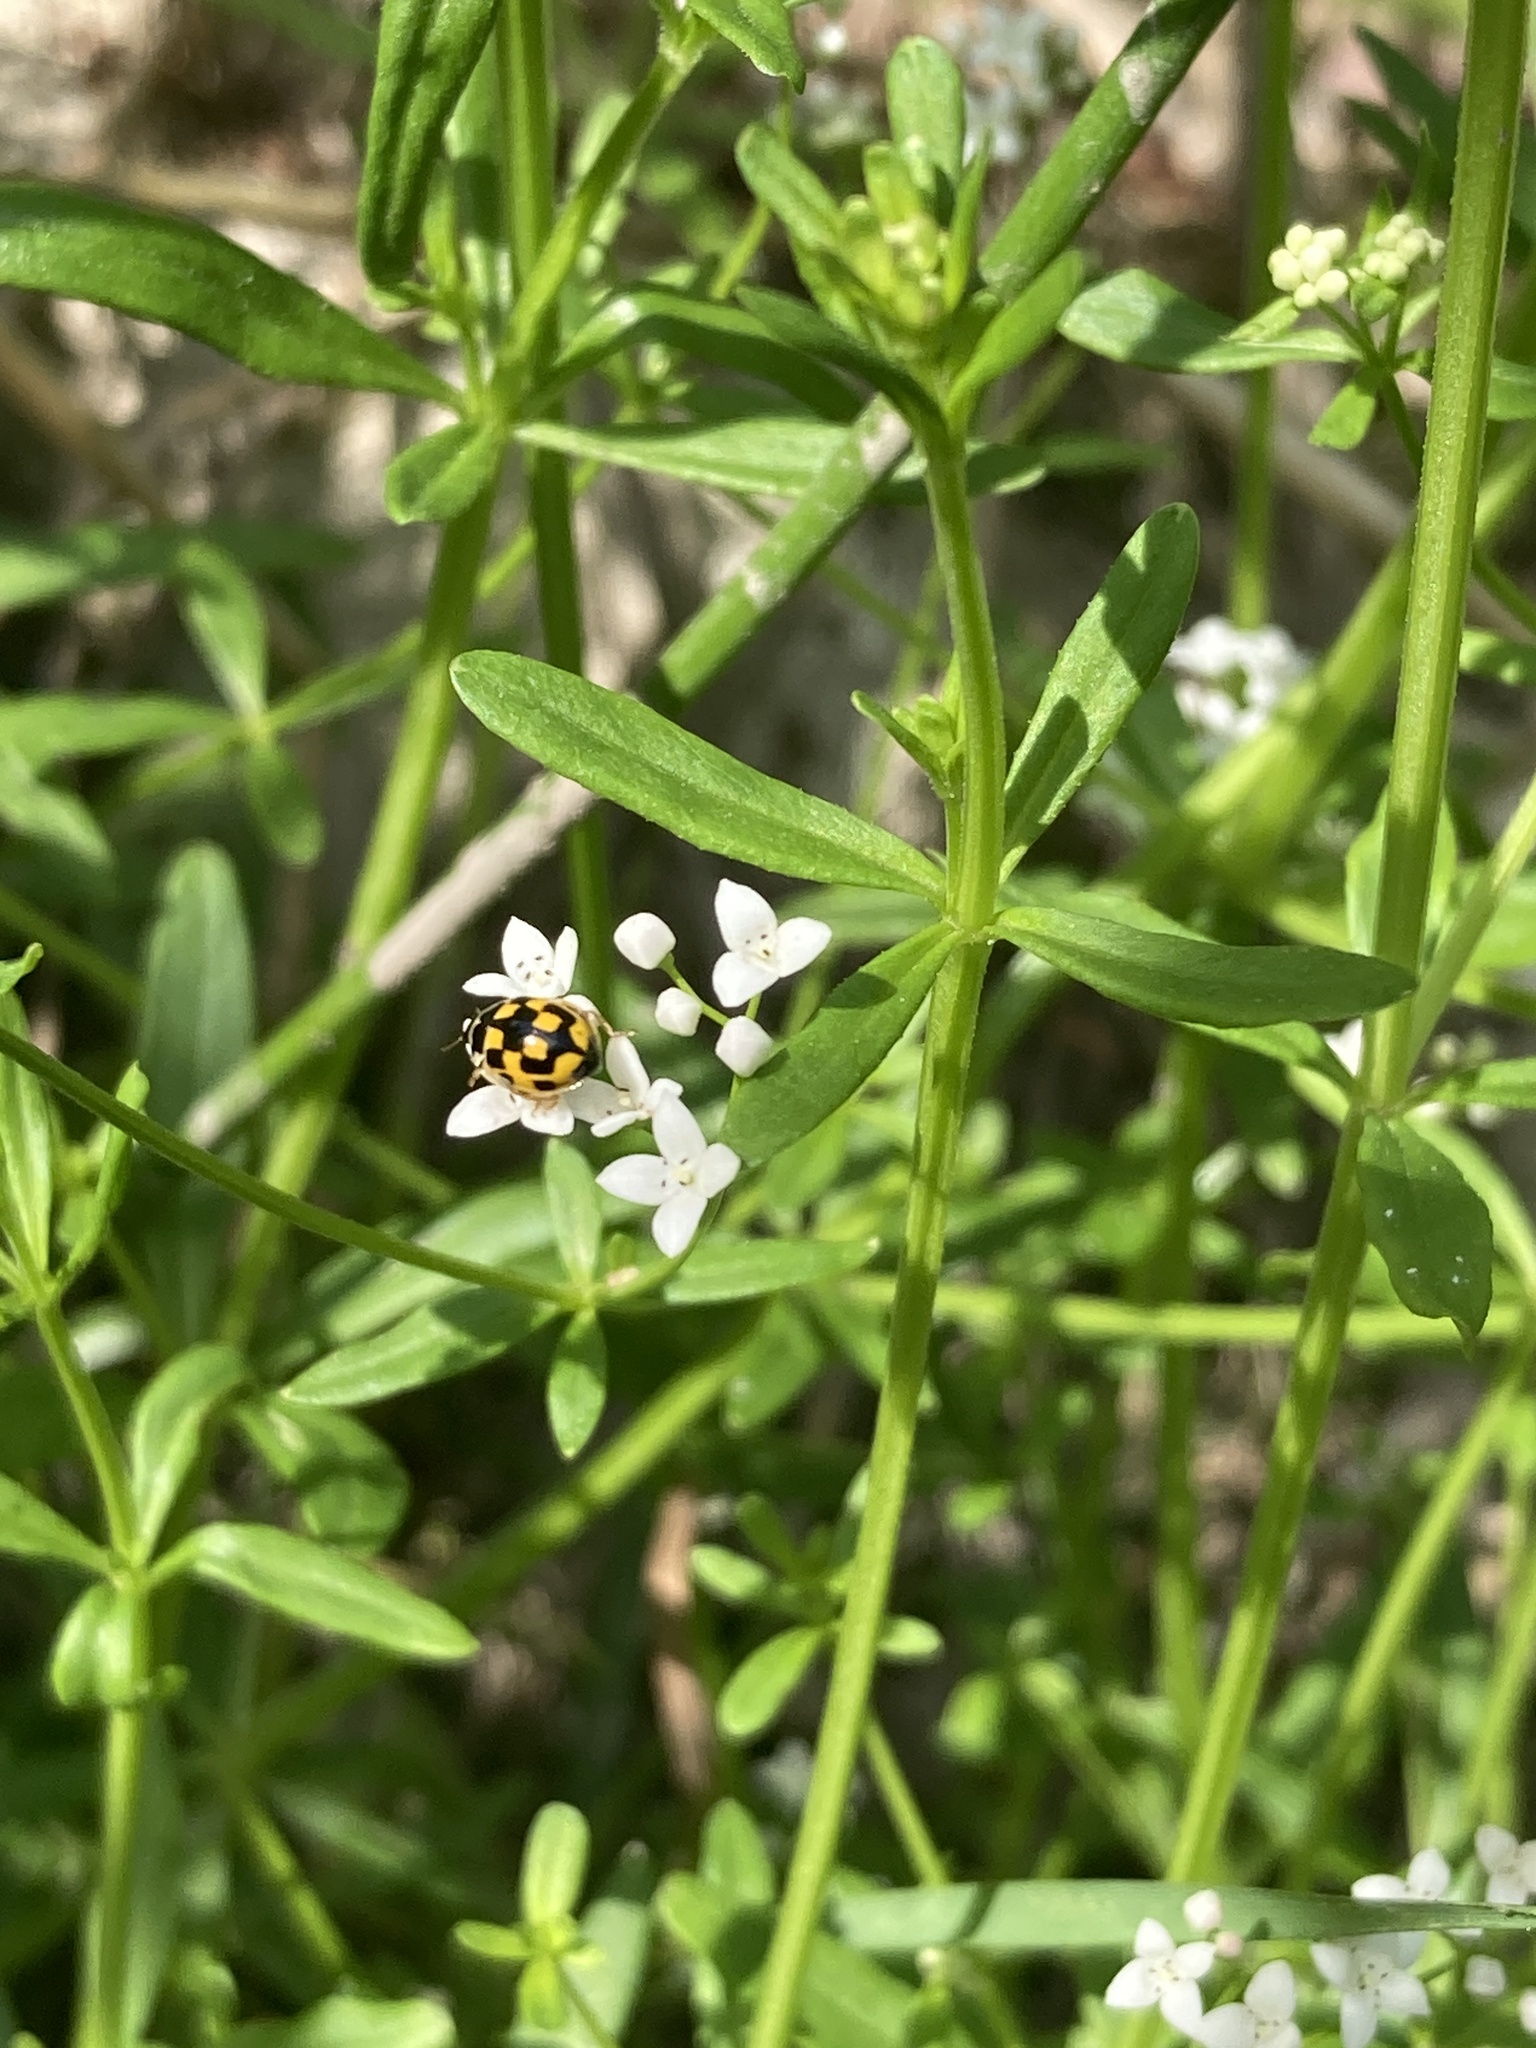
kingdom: Animalia
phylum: Arthropoda
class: Insecta
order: Coleoptera
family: Coccinellidae
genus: Propylaea
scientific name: Propylaea quatuordecimpunctata
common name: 14-spotted ladybird beetle
